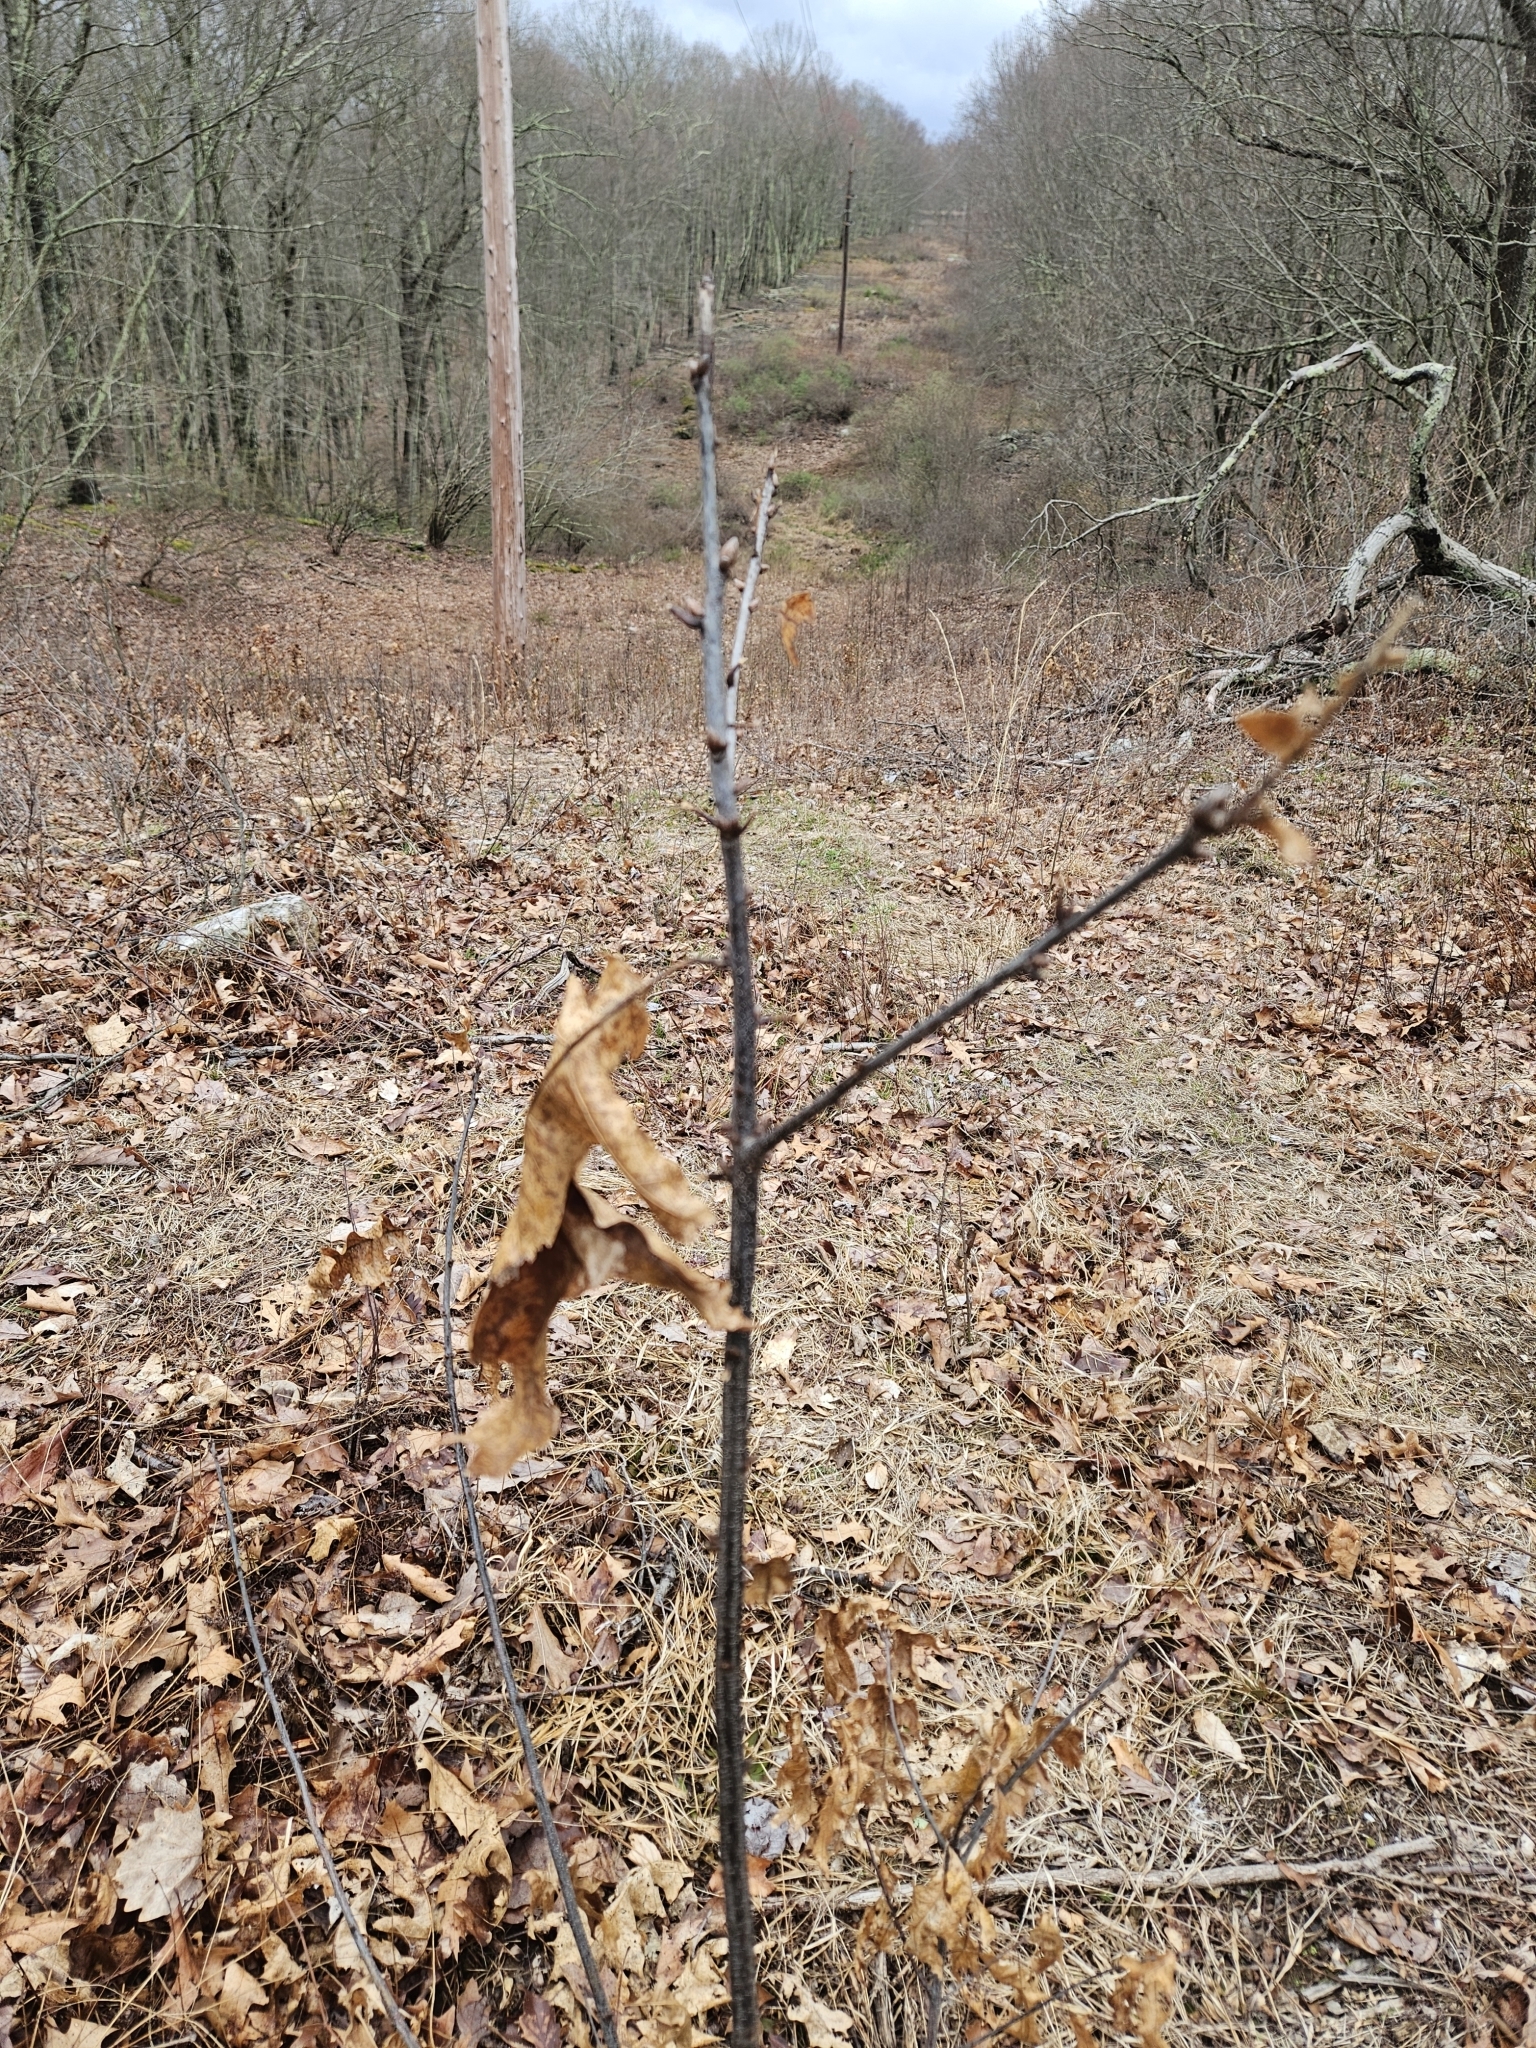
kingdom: Plantae
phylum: Tracheophyta
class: Magnoliopsida
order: Fagales
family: Fagaceae
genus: Quercus
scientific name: Quercus velutina
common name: Black oak
